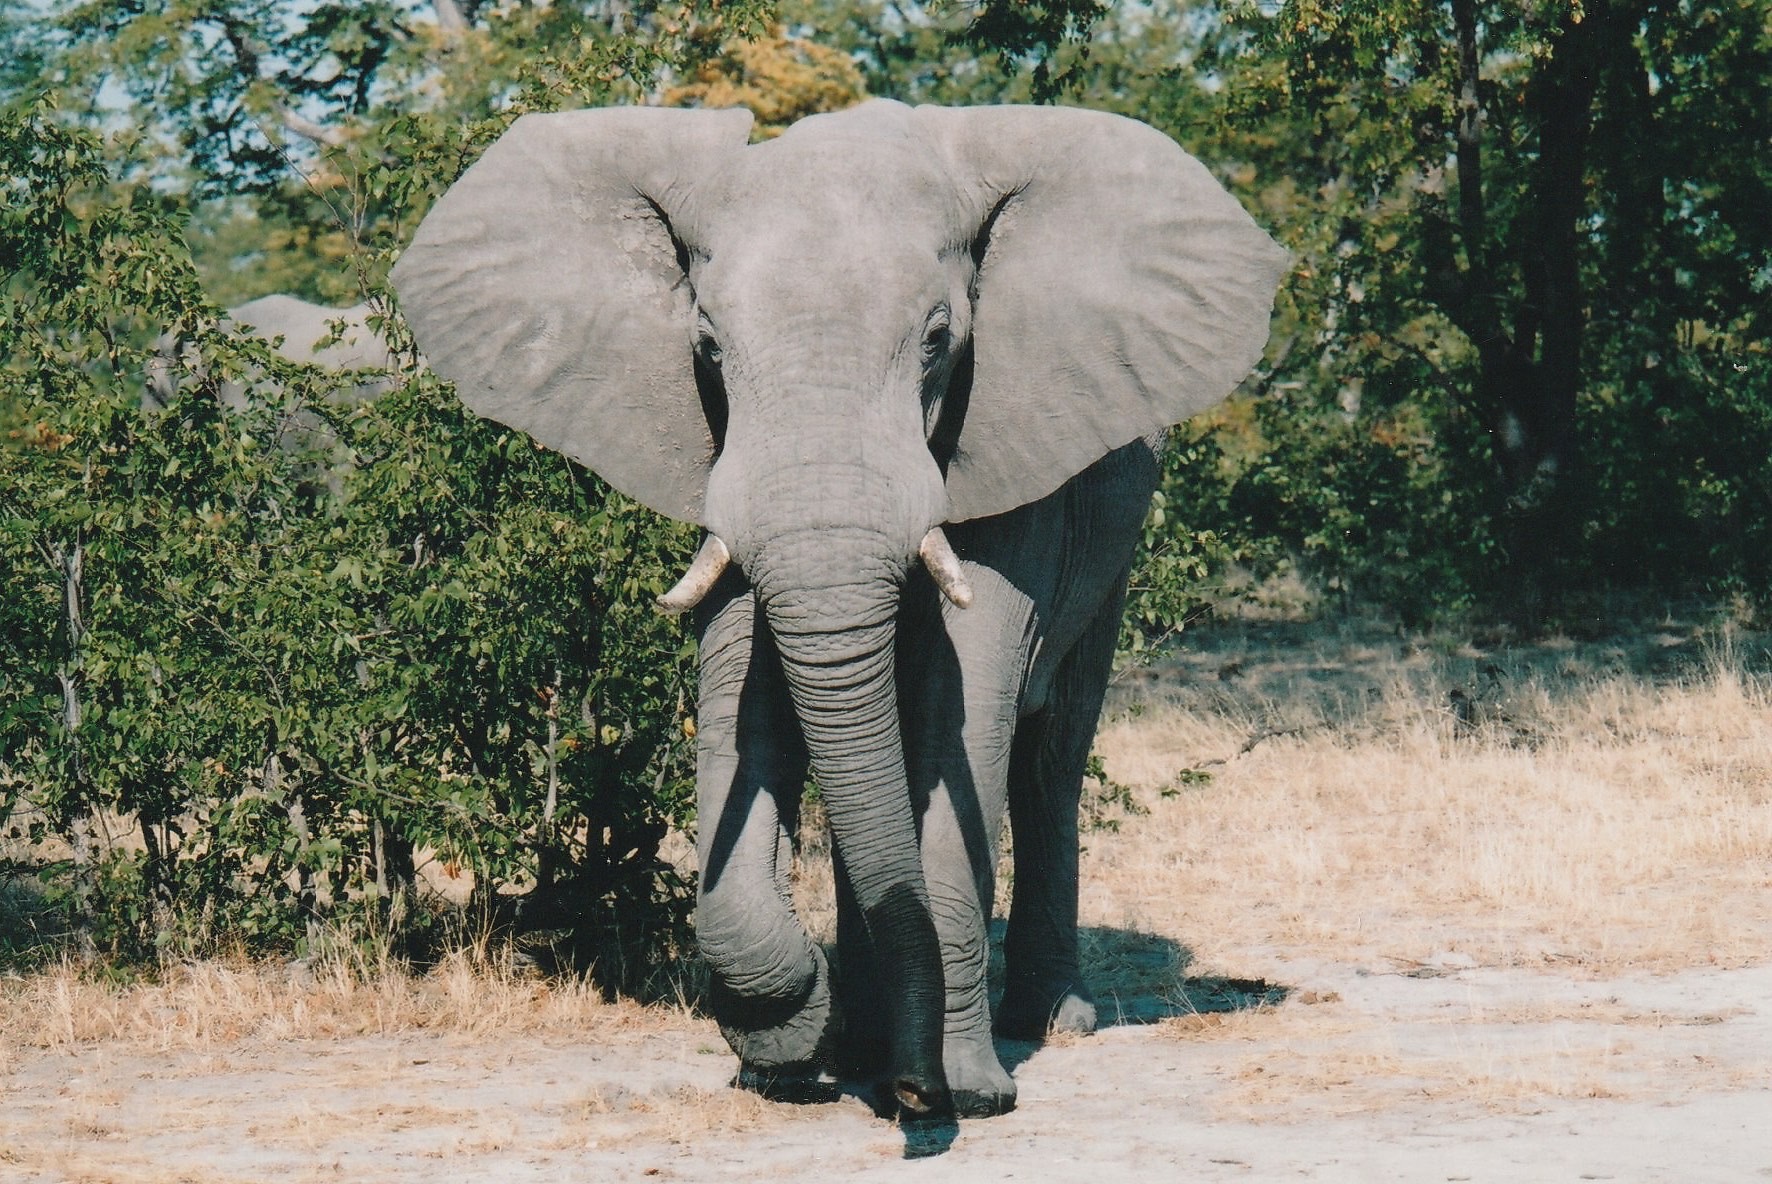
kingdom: Animalia
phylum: Chordata
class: Mammalia
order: Proboscidea
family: Elephantidae
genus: Loxodonta
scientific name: Loxodonta africana
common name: African elephant
